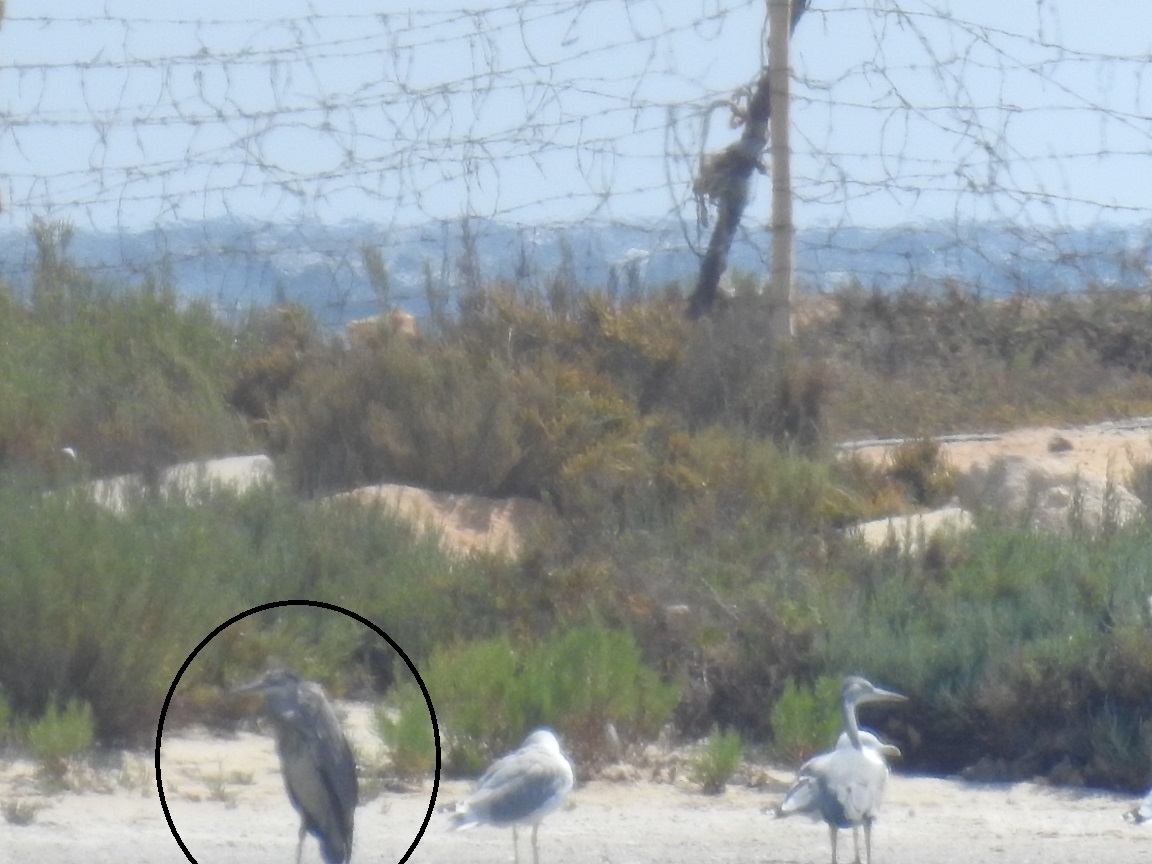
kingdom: Animalia
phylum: Chordata
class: Aves
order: Pelecaniformes
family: Ardeidae
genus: Ardea
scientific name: Ardea cinerea
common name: Grey heron
